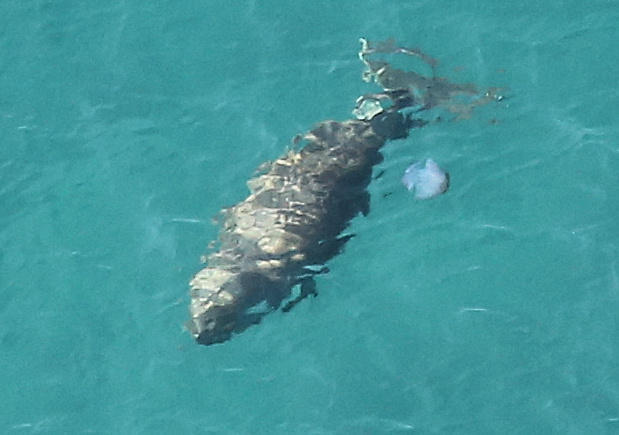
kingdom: Animalia
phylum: Chordata
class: Mammalia
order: Sirenia
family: Dugongidae
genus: Dugong
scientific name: Dugong dugon
